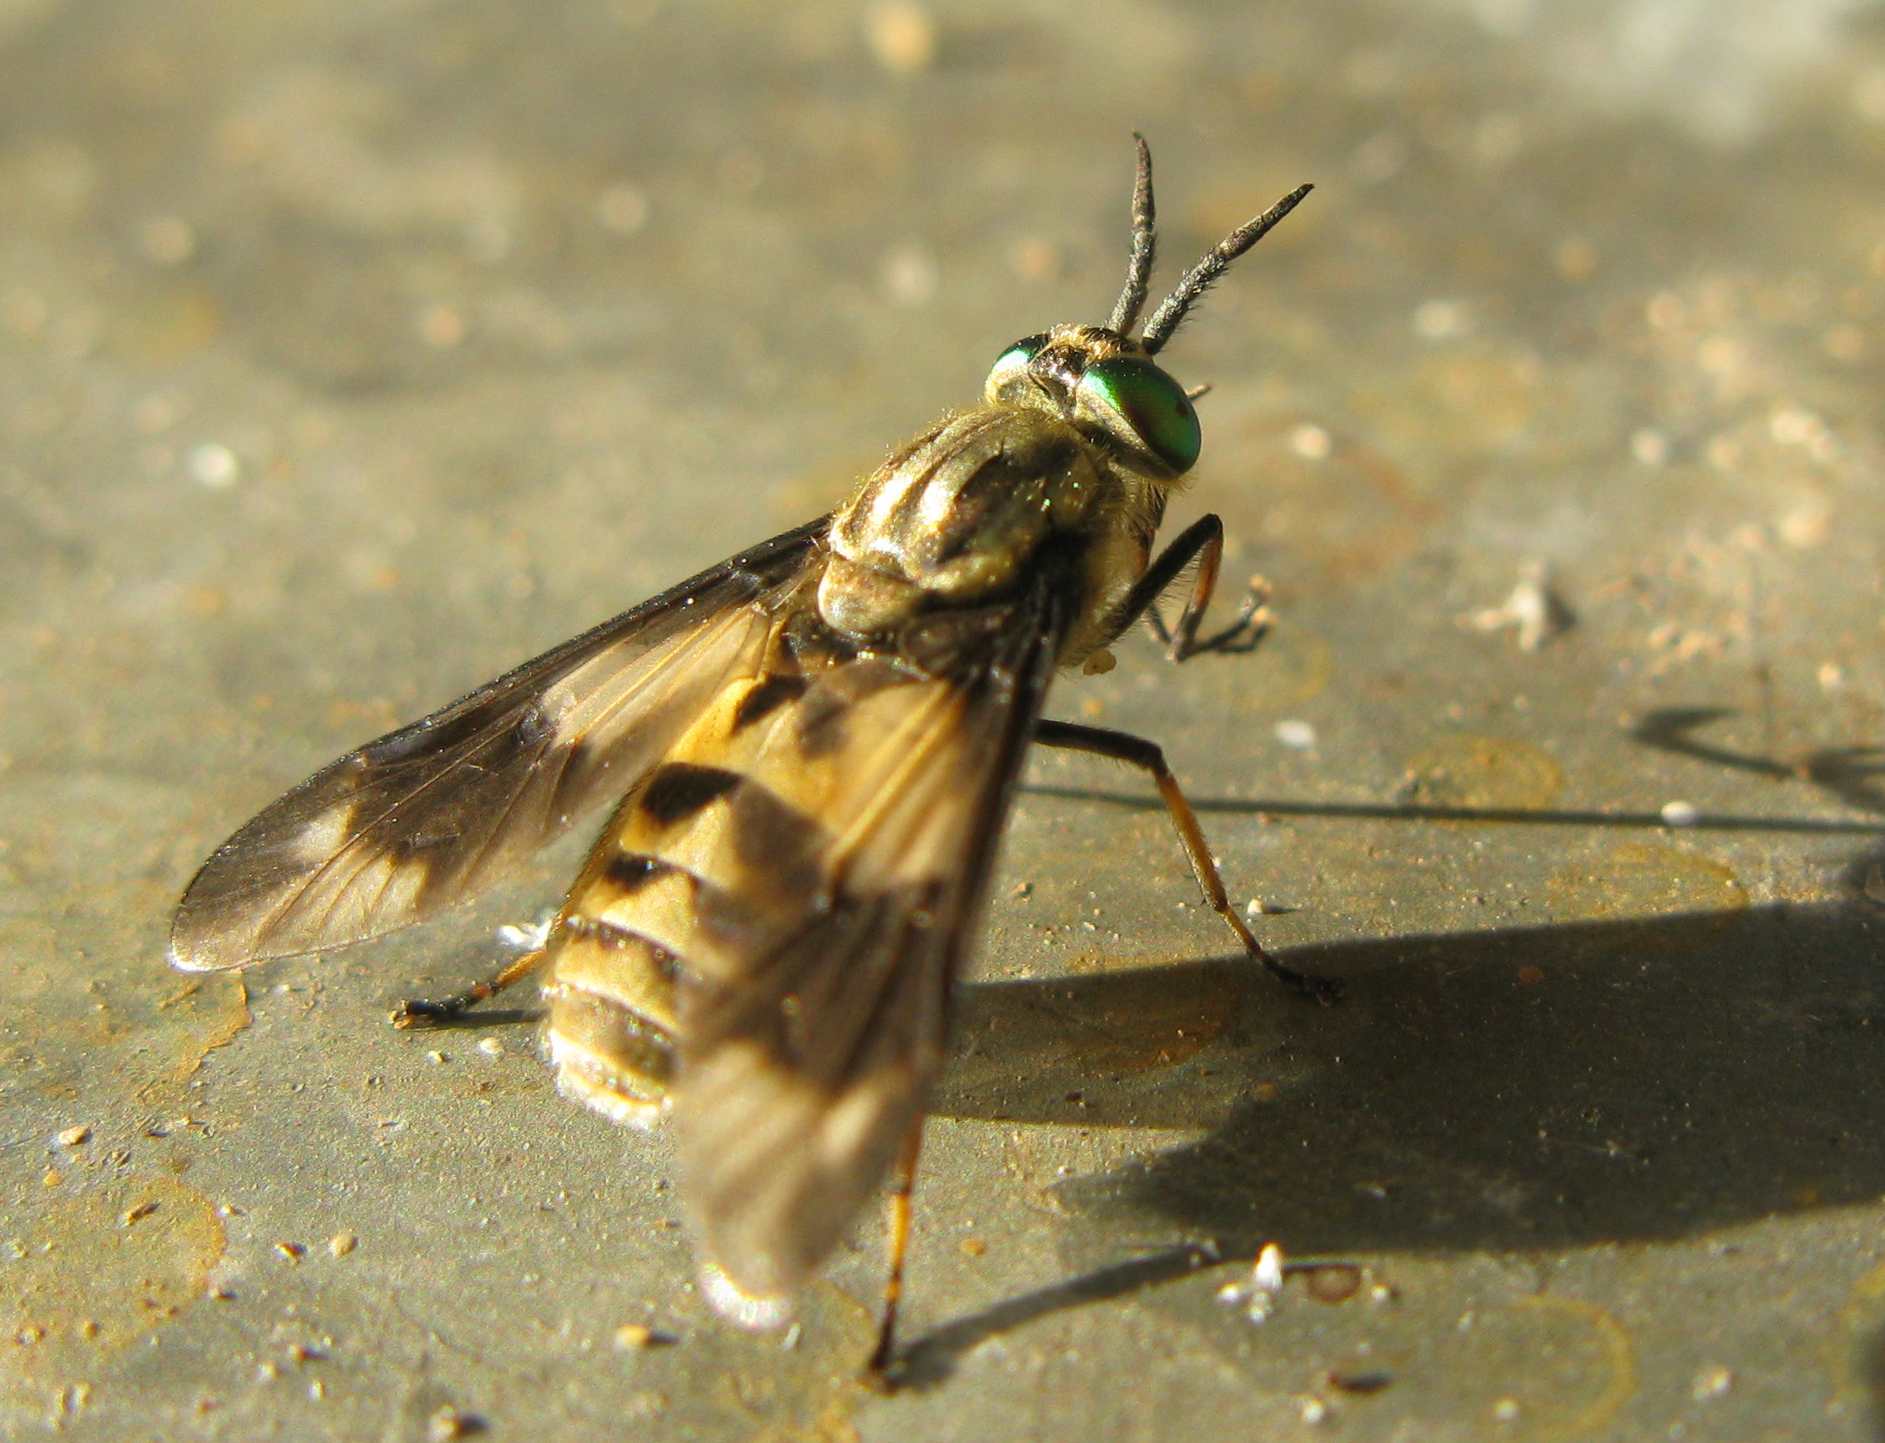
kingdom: Animalia
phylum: Arthropoda
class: Insecta
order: Diptera
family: Tabanidae
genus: Chrysops
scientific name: Chrysops relictus
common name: Twin-lobed deerfly
